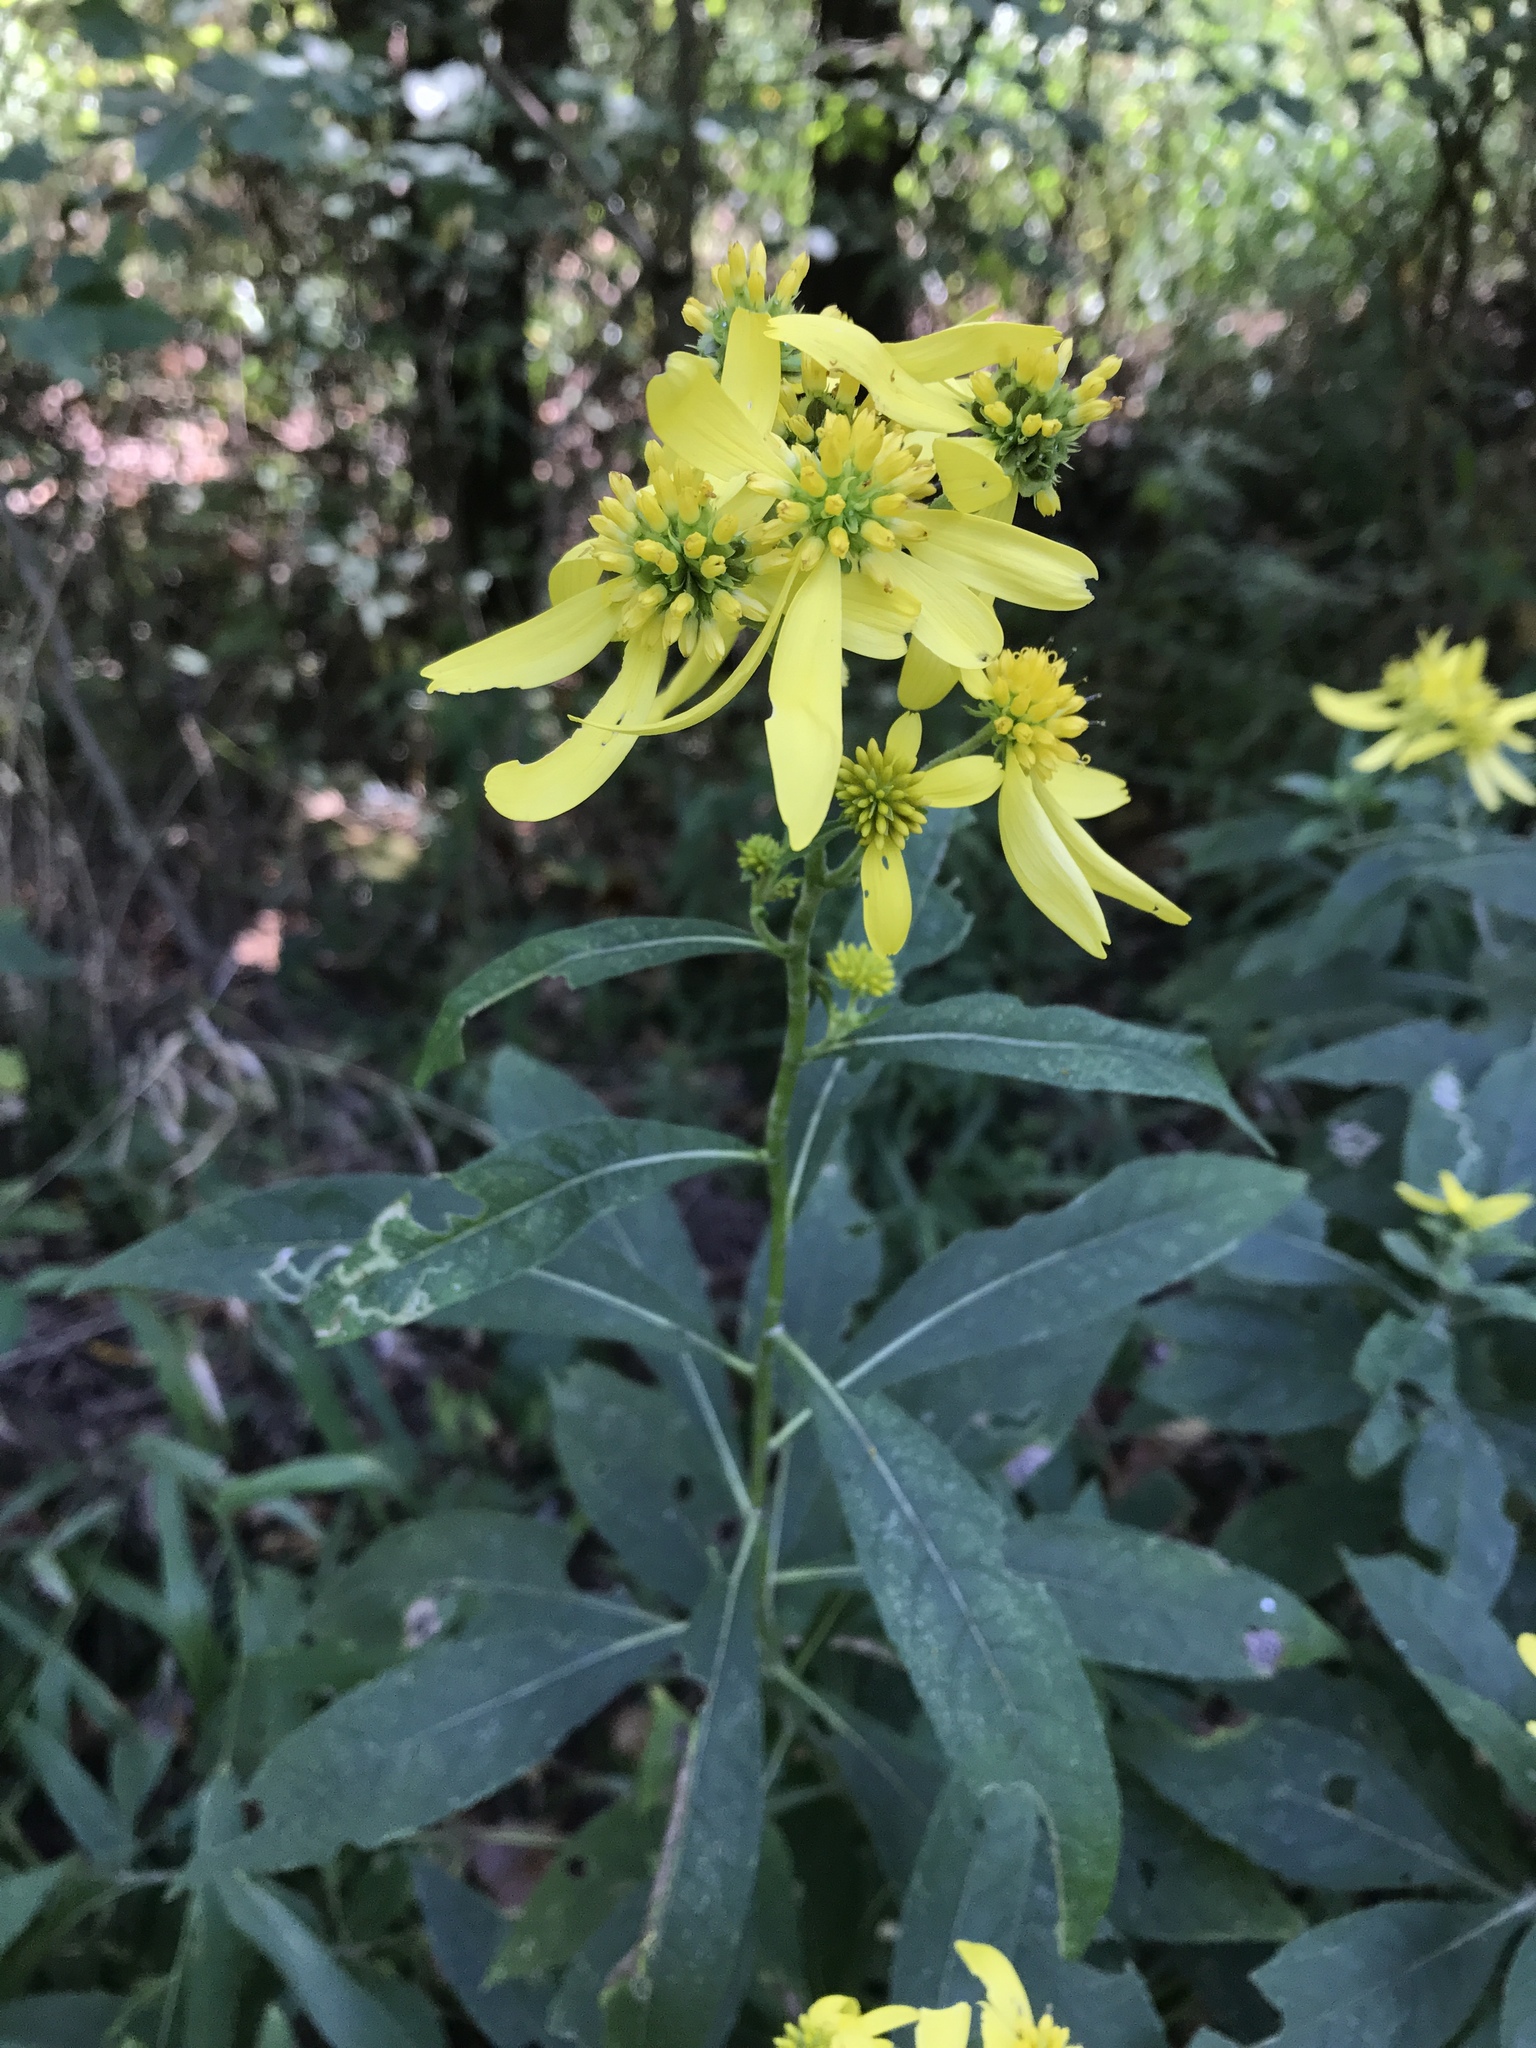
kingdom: Plantae
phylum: Tracheophyta
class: Magnoliopsida
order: Asterales
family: Asteraceae
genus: Verbesina
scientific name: Verbesina alternifolia
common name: Wingstem
